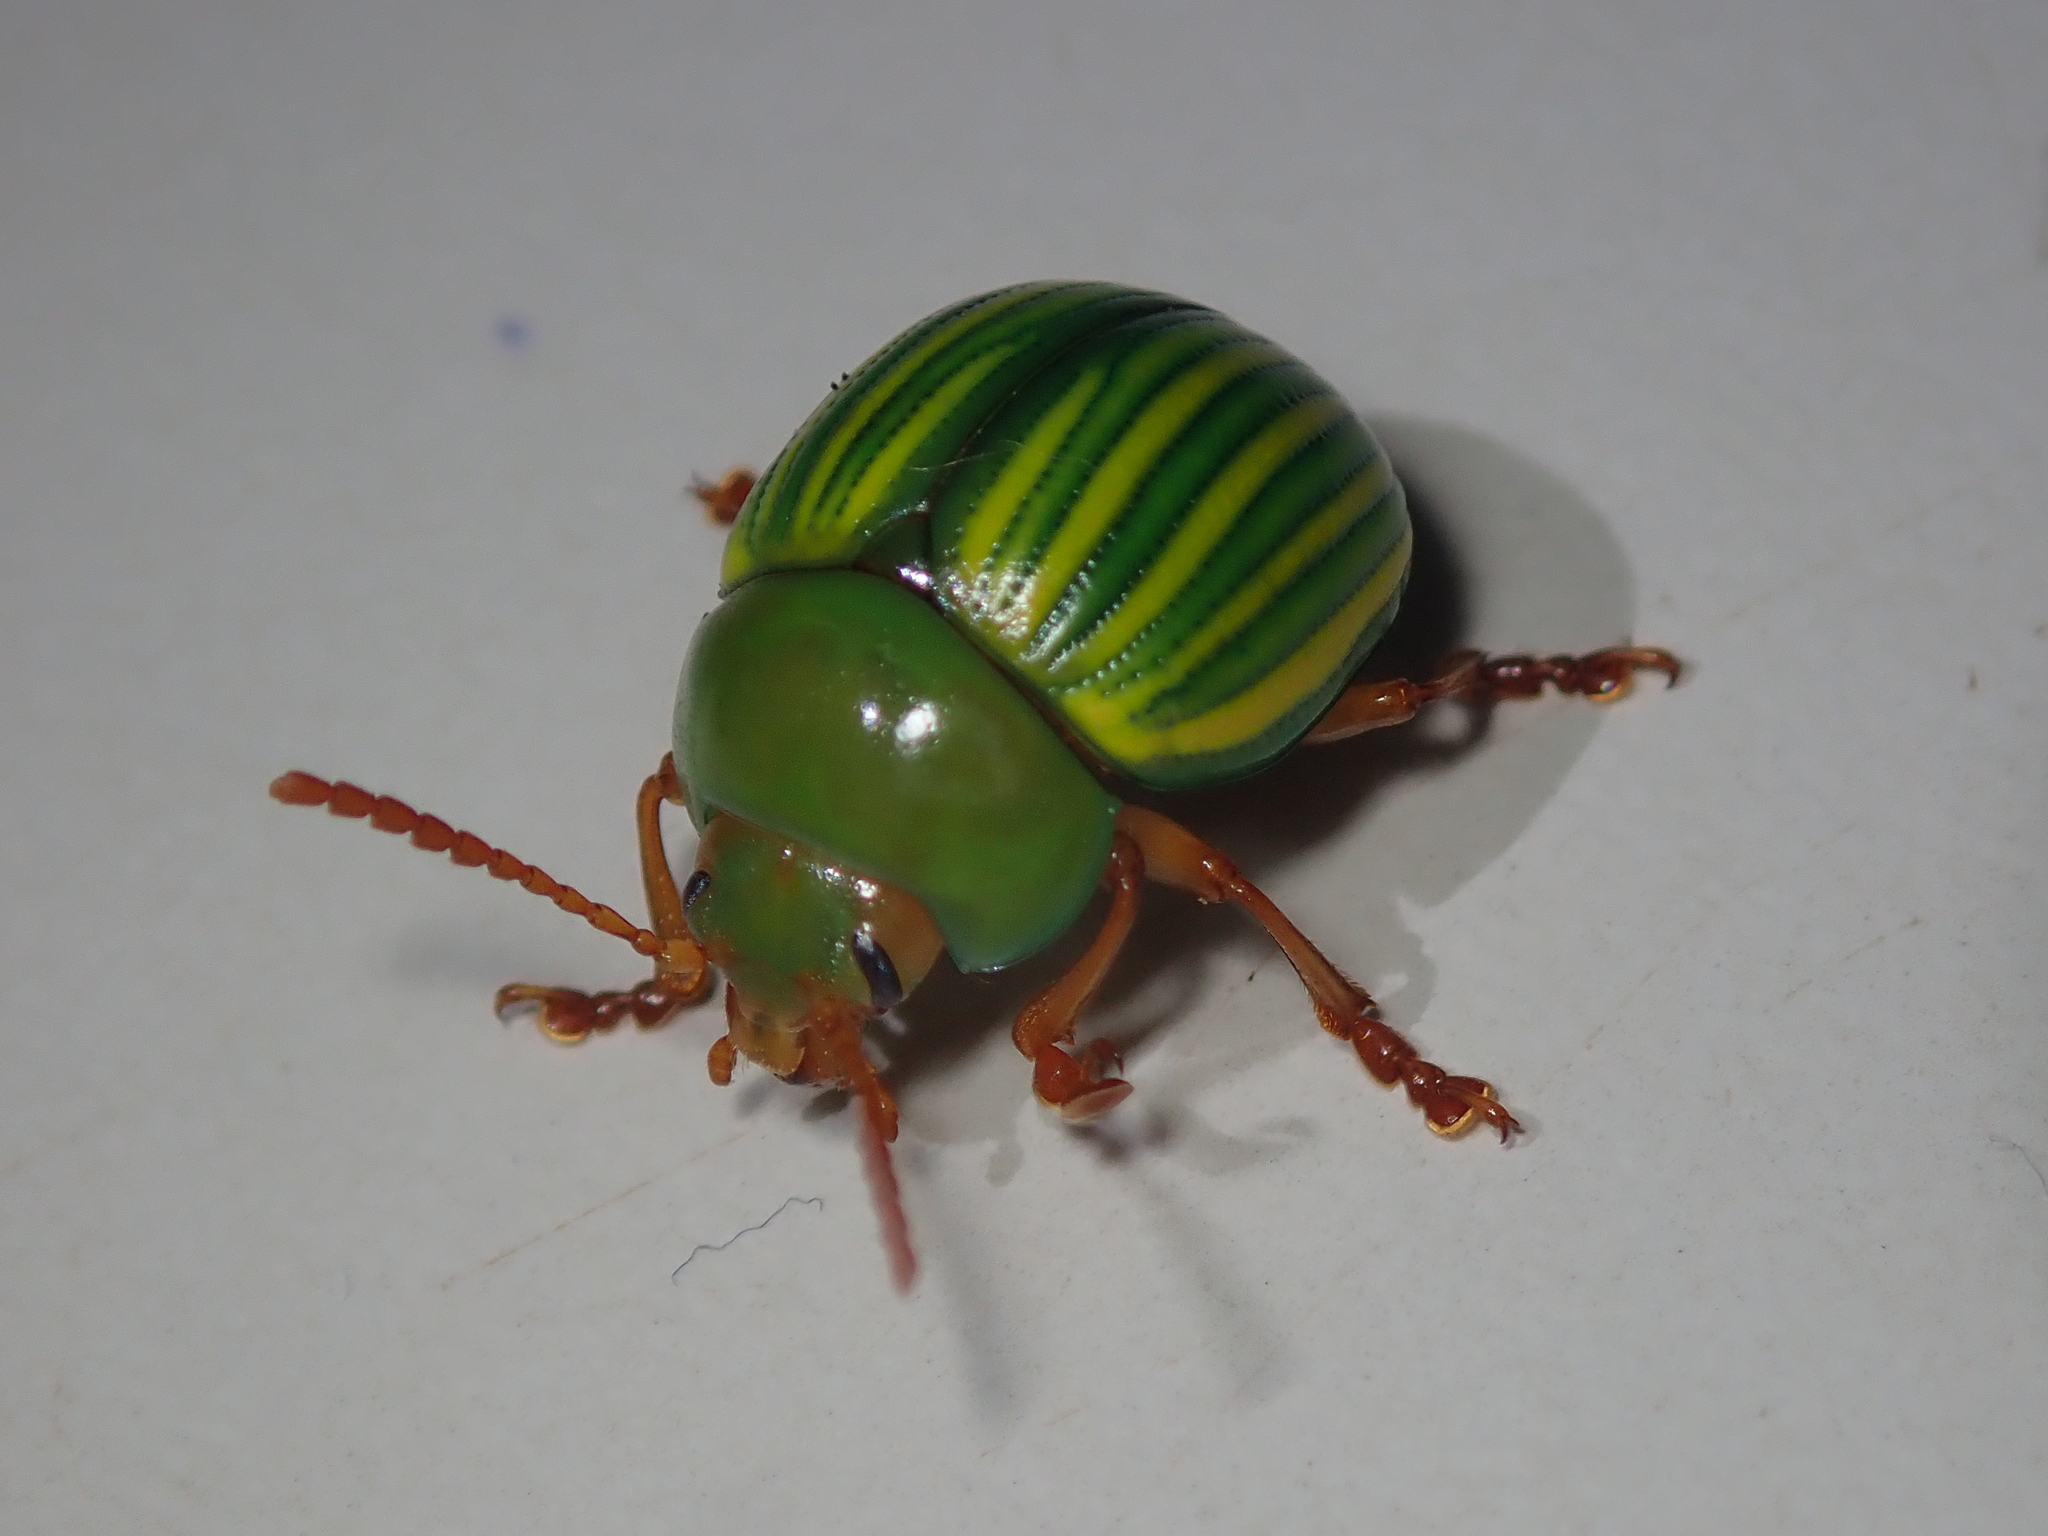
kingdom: Animalia
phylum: Arthropoda
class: Insecta
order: Coleoptera
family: Chrysomelidae
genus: Platyphora
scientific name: Platyphora
